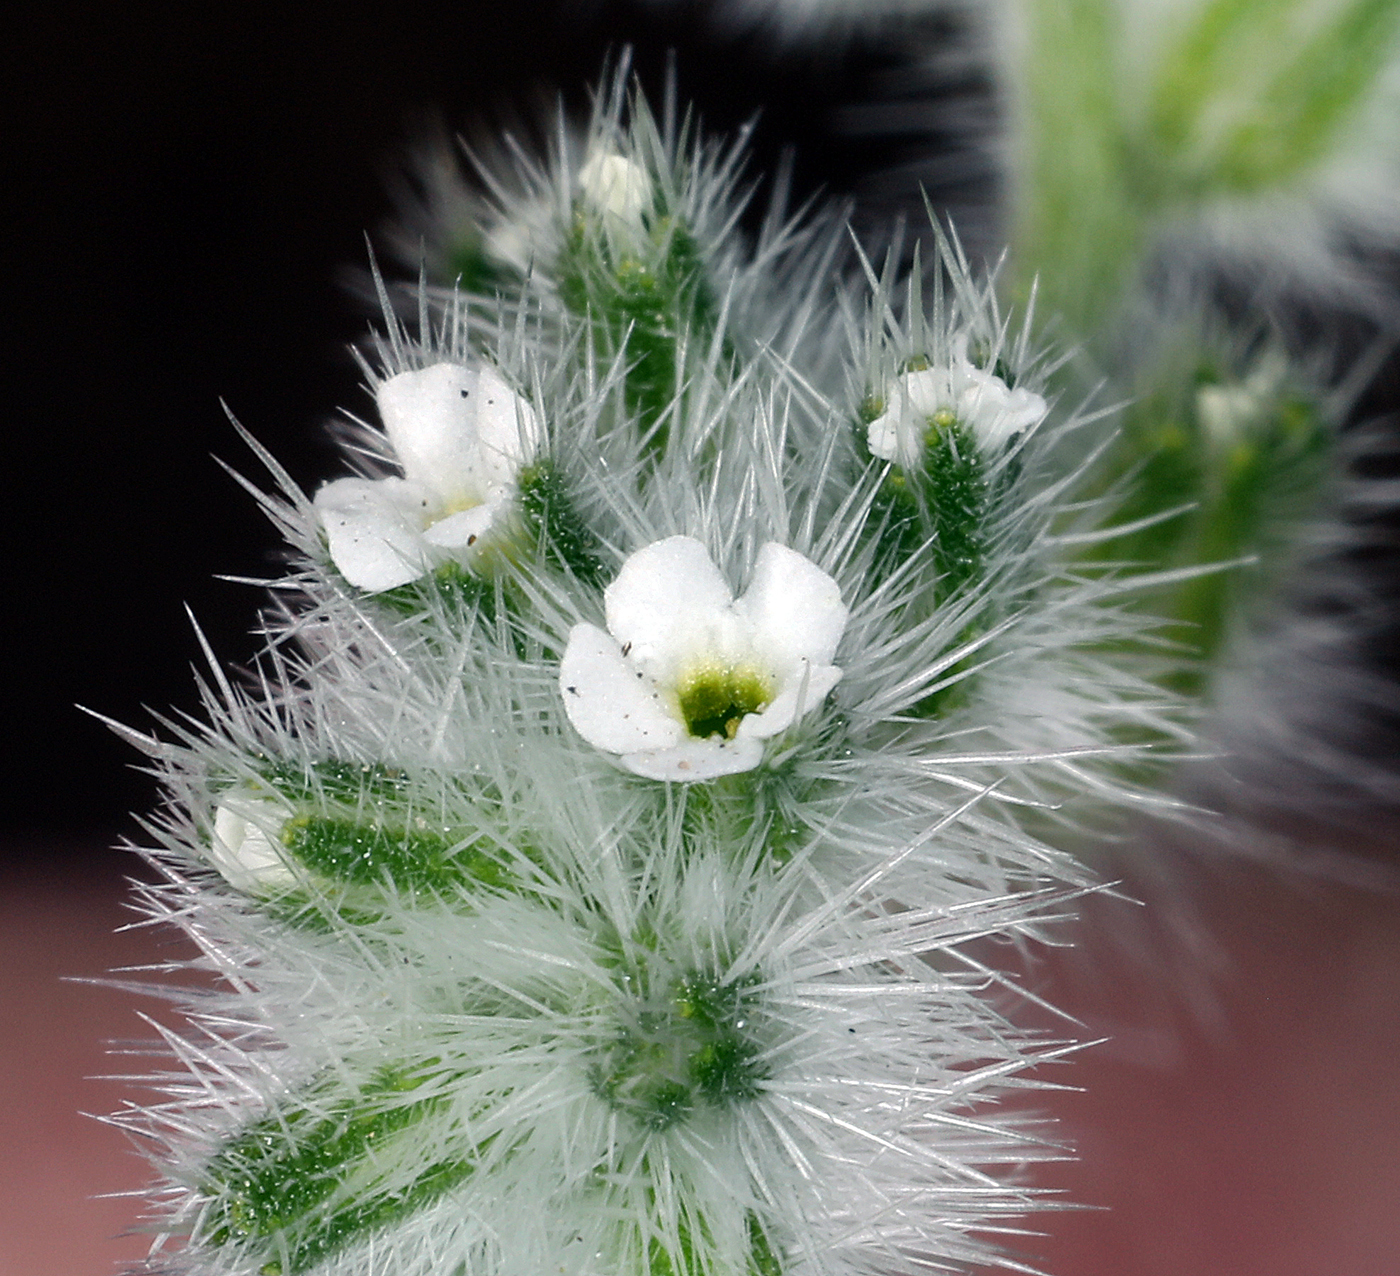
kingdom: Plantae
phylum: Tracheophyta
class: Magnoliopsida
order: Boraginales
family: Boraginaceae
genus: Cryptantha
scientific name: Cryptantha barbigera
